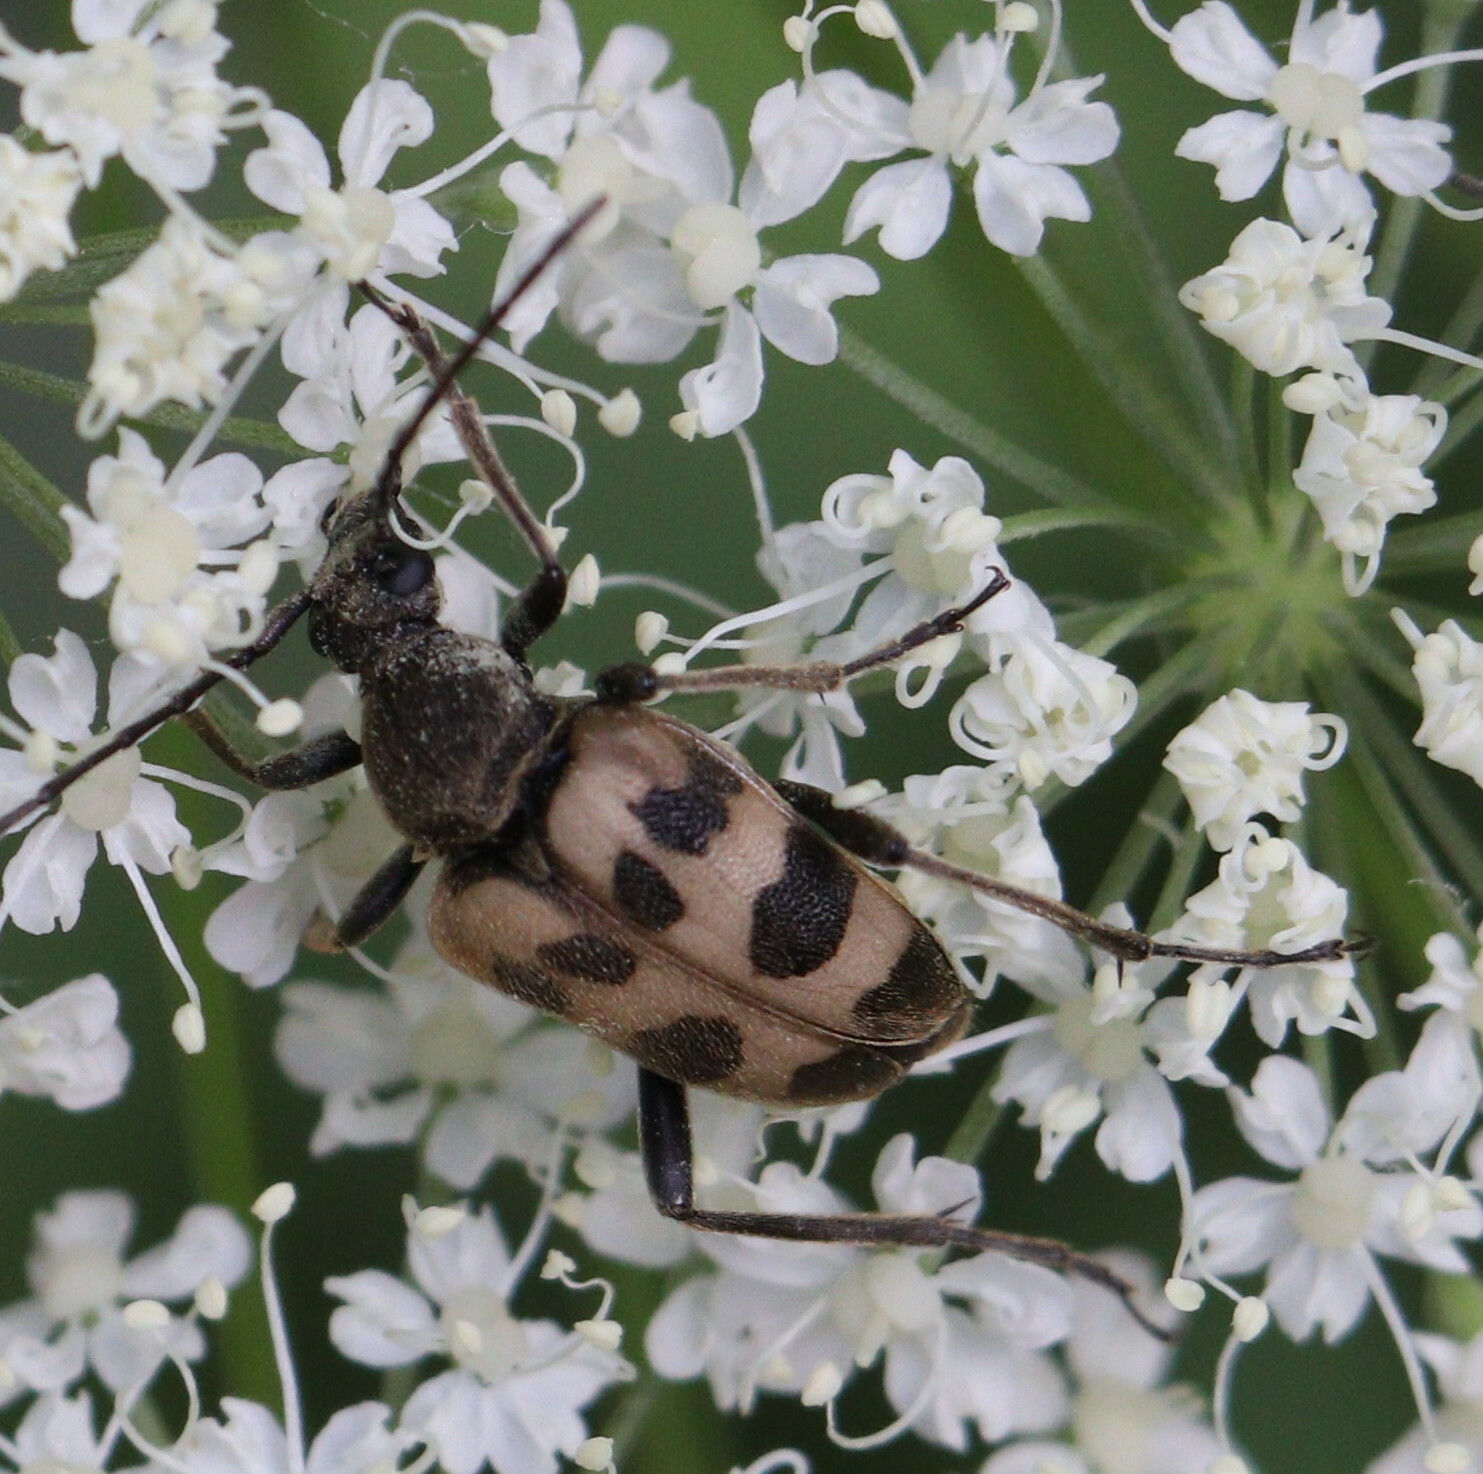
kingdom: Animalia
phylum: Arthropoda
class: Insecta
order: Coleoptera
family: Cerambycidae
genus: Pachytodes
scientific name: Pachytodes cerambyciformis
